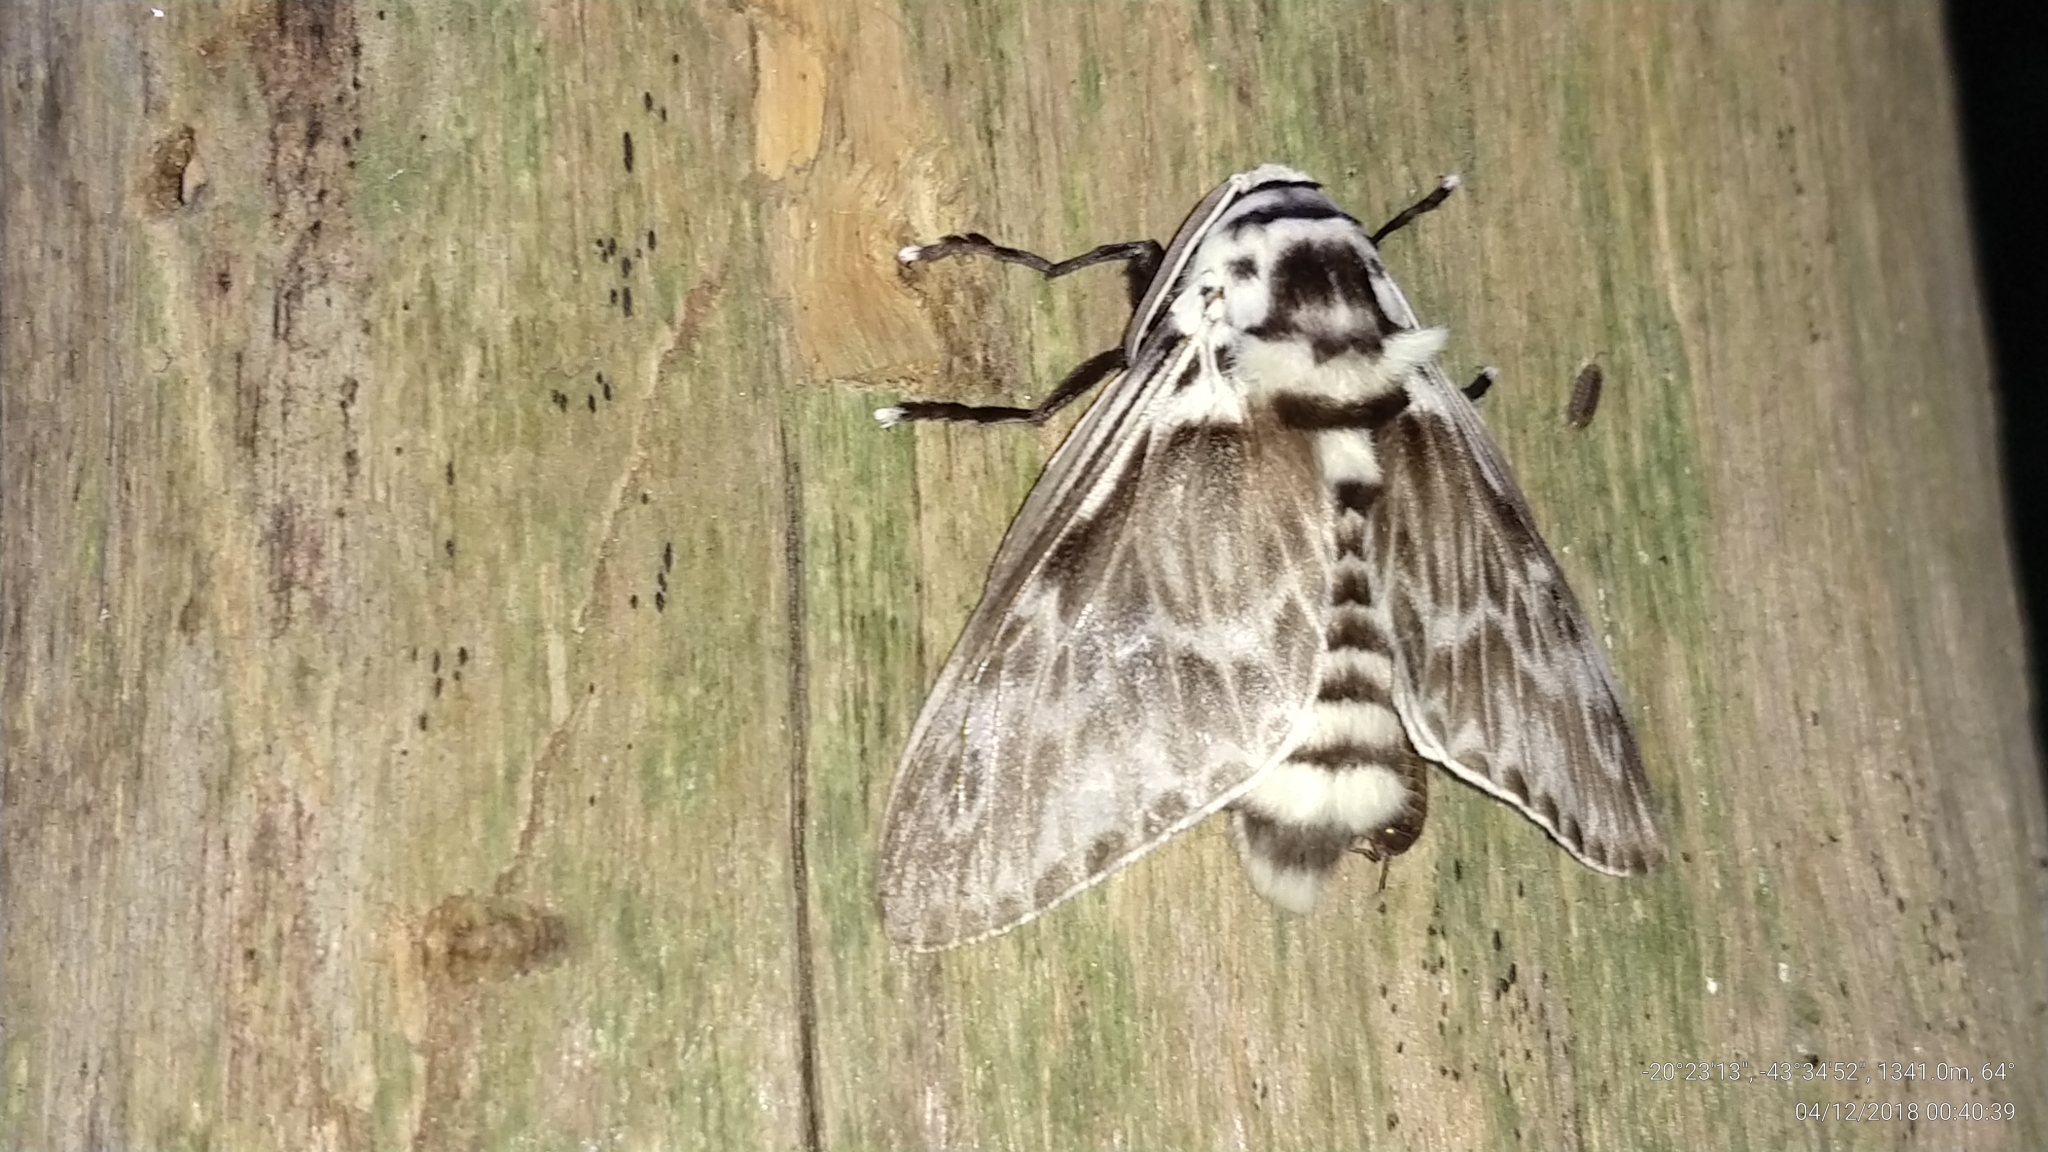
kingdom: Animalia
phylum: Arthropoda
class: Insecta
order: Lepidoptera
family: Megalopygidae
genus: Podalia
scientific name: Podalia orsilochus
